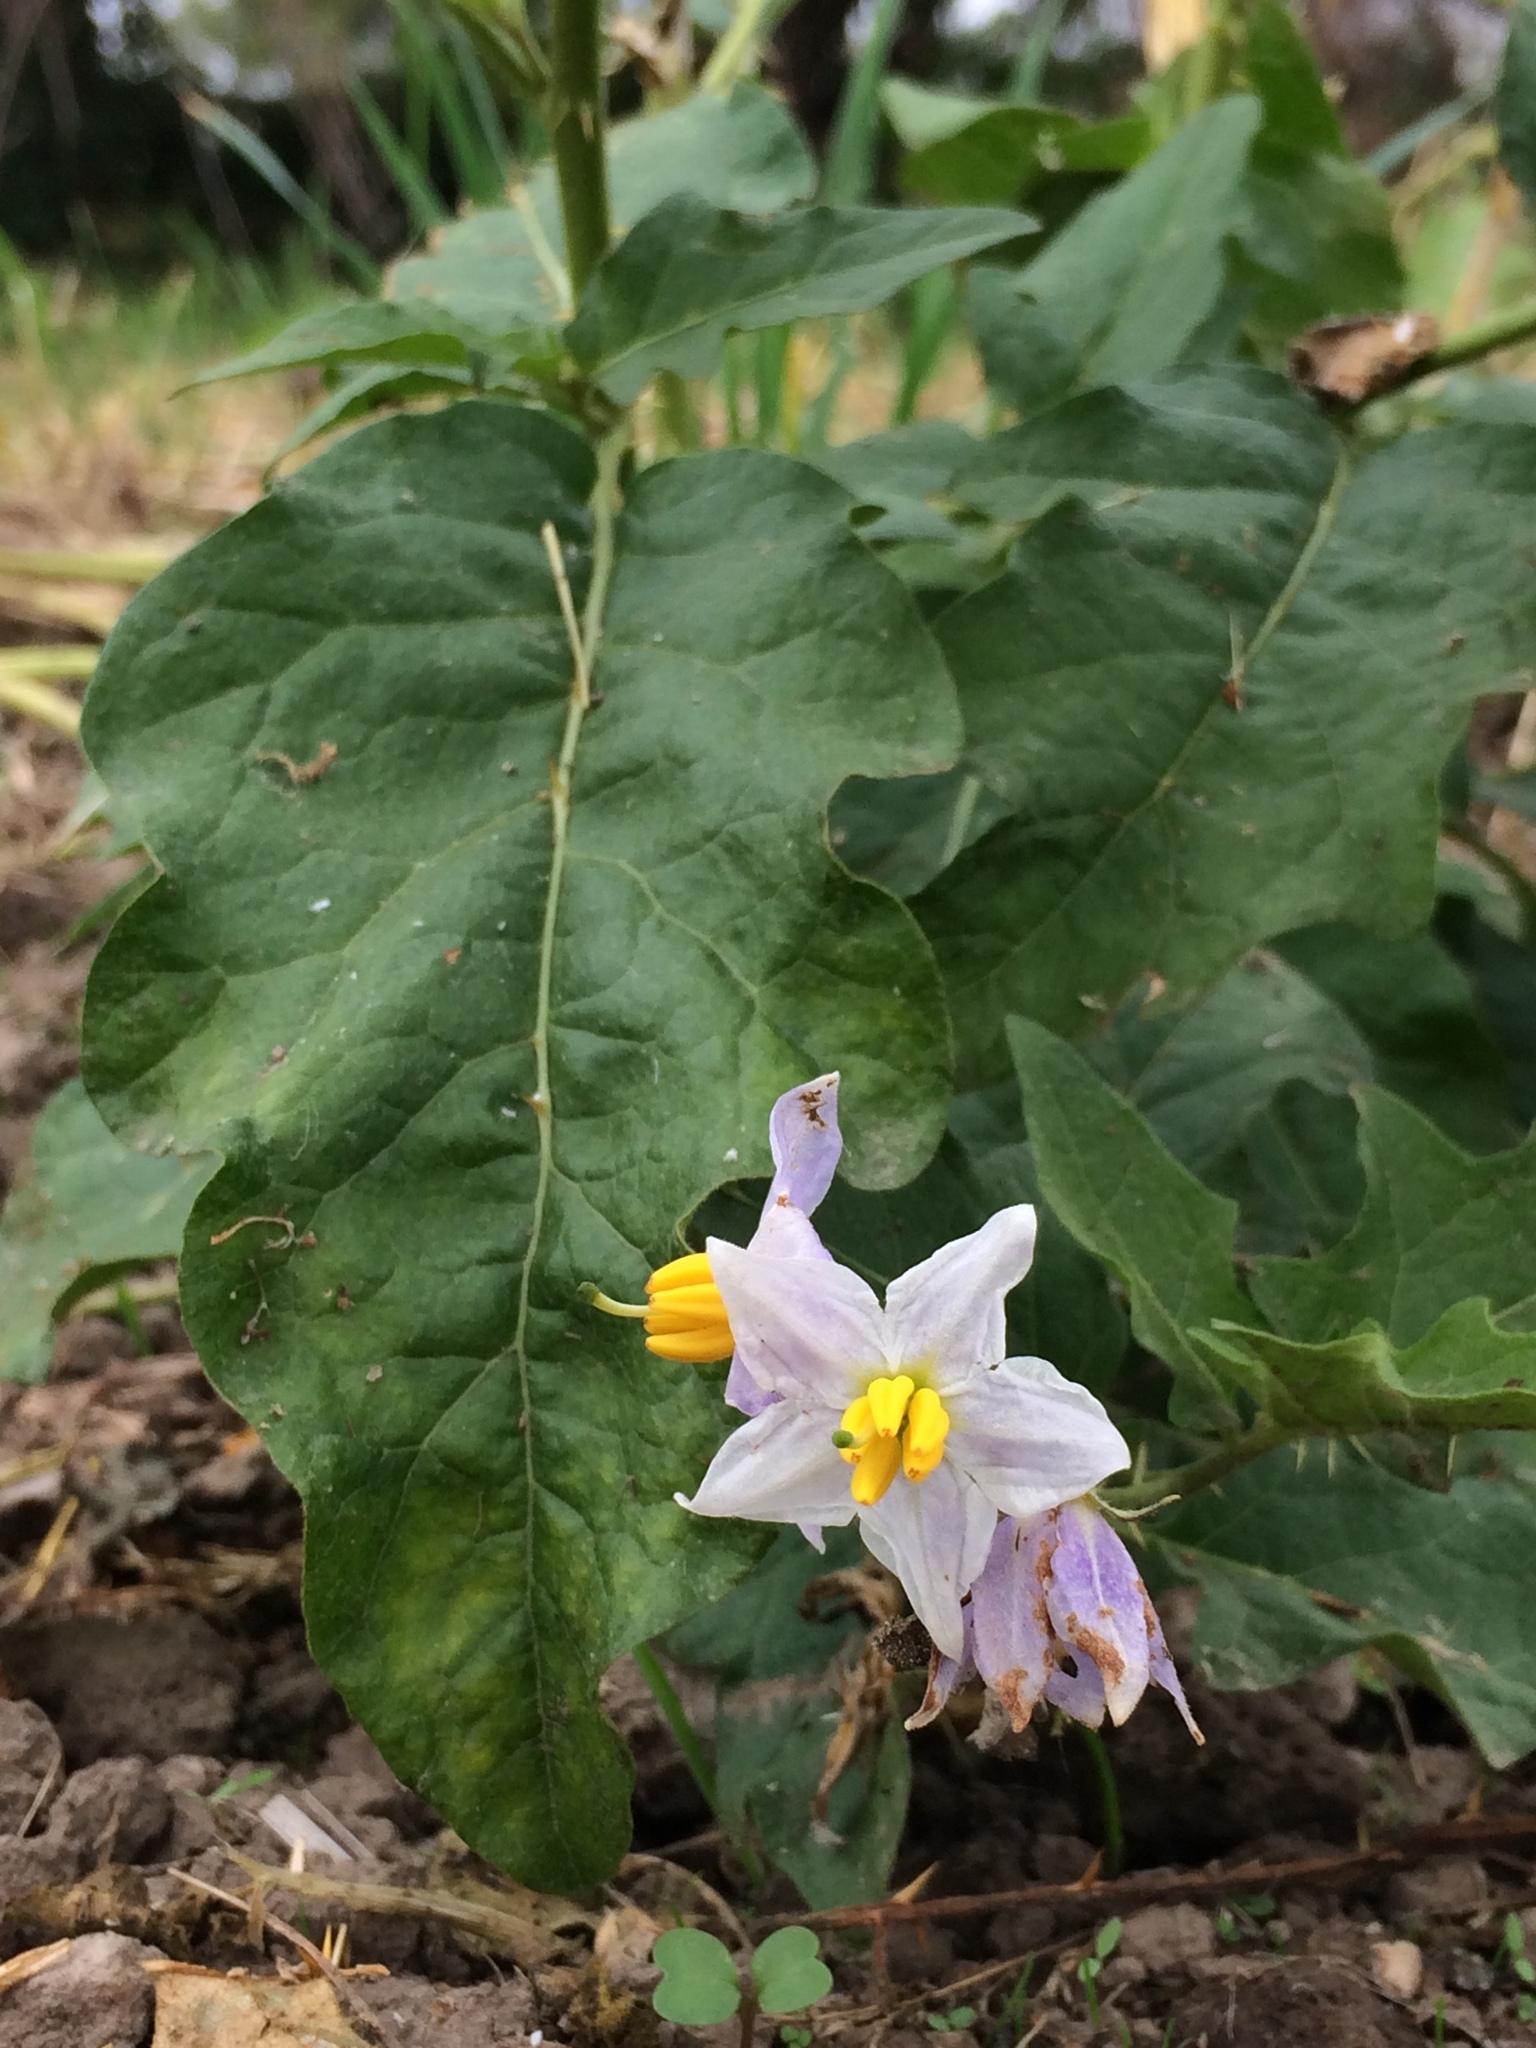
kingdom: Plantae
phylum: Tracheophyta
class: Magnoliopsida
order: Solanales
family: Solanaceae
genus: Solanum
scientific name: Solanum carolinense
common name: Horse-nettle
